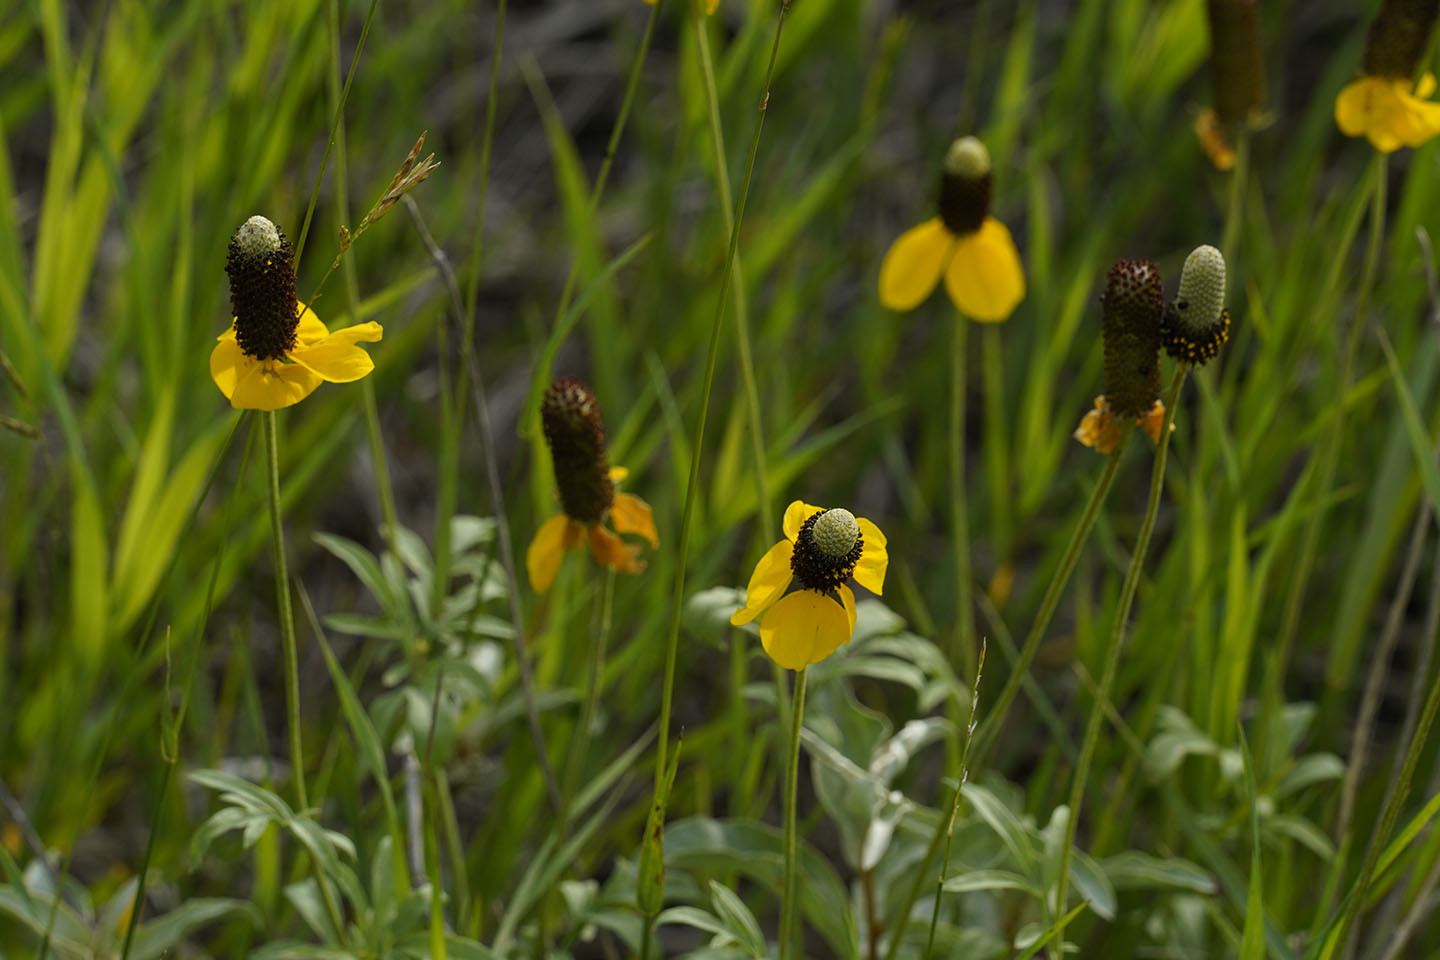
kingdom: Plantae
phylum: Tracheophyta
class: Magnoliopsida
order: Asterales
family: Asteraceae
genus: Ratibida
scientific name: Ratibida columnifera
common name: Prairie coneflower
